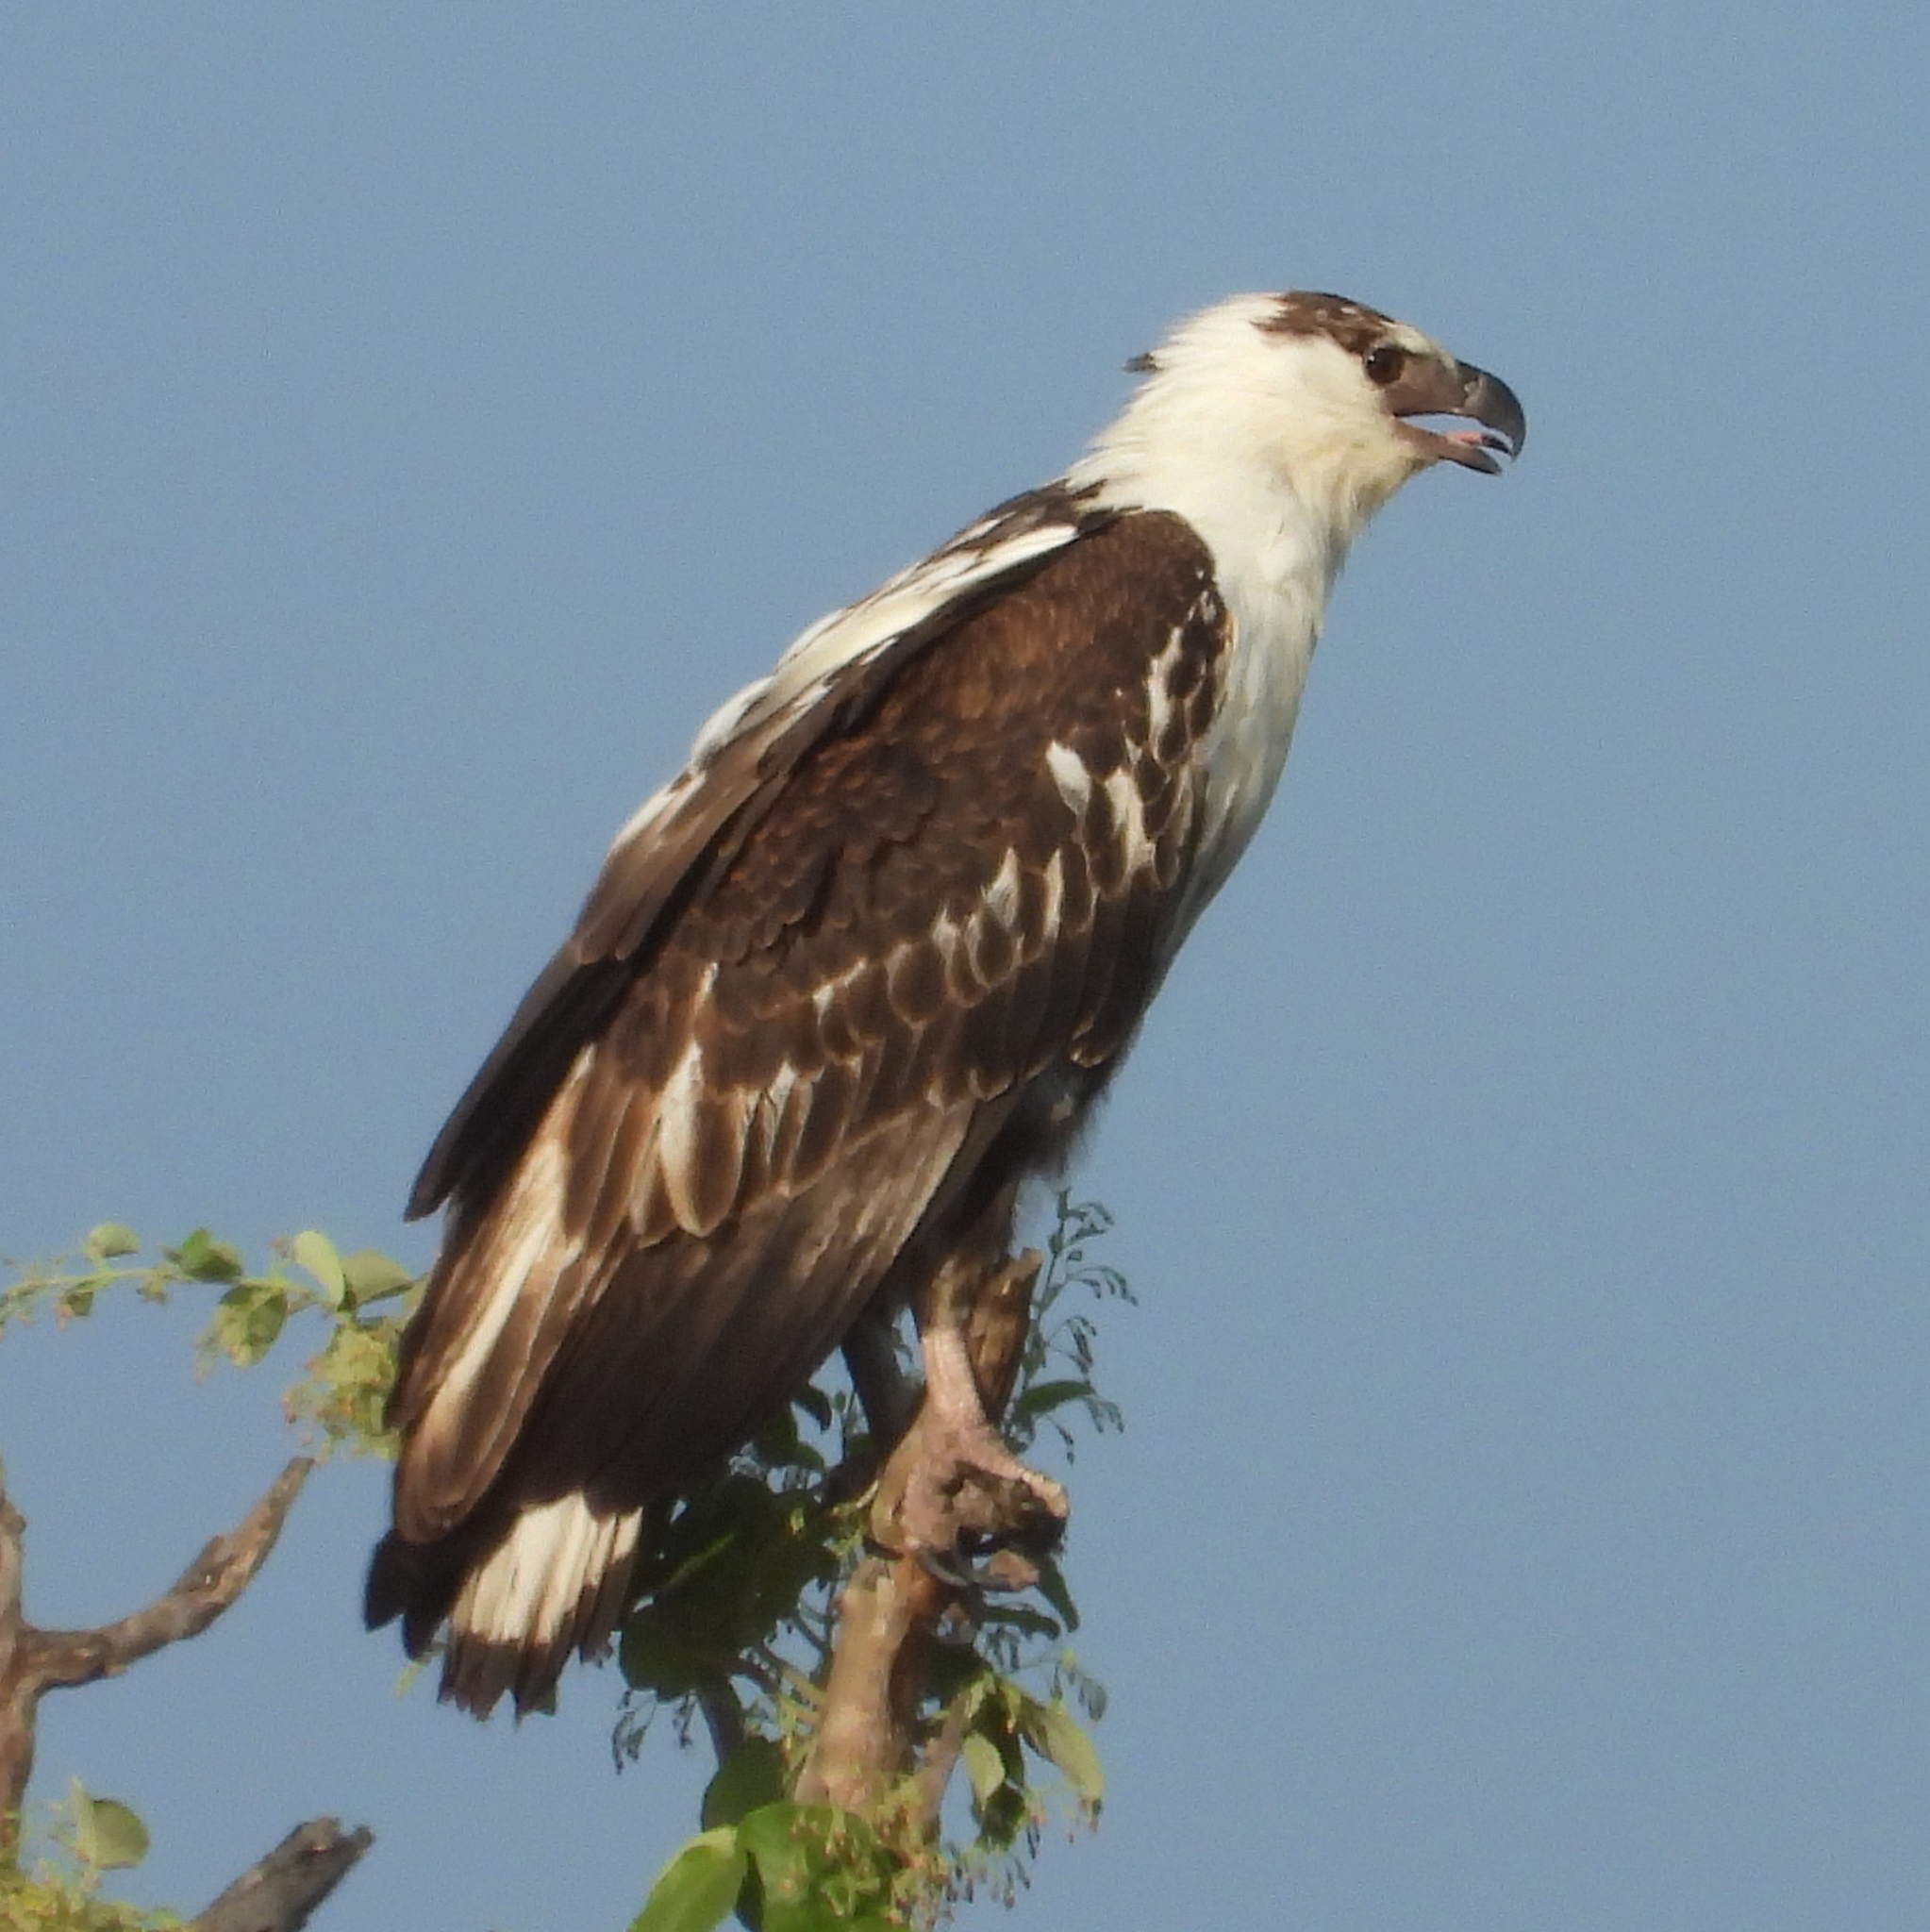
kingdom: Animalia
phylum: Chordata
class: Aves
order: Accipitriformes
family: Accipitridae
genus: Haliaeetus
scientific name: Haliaeetus vocifer
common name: African fish eagle
